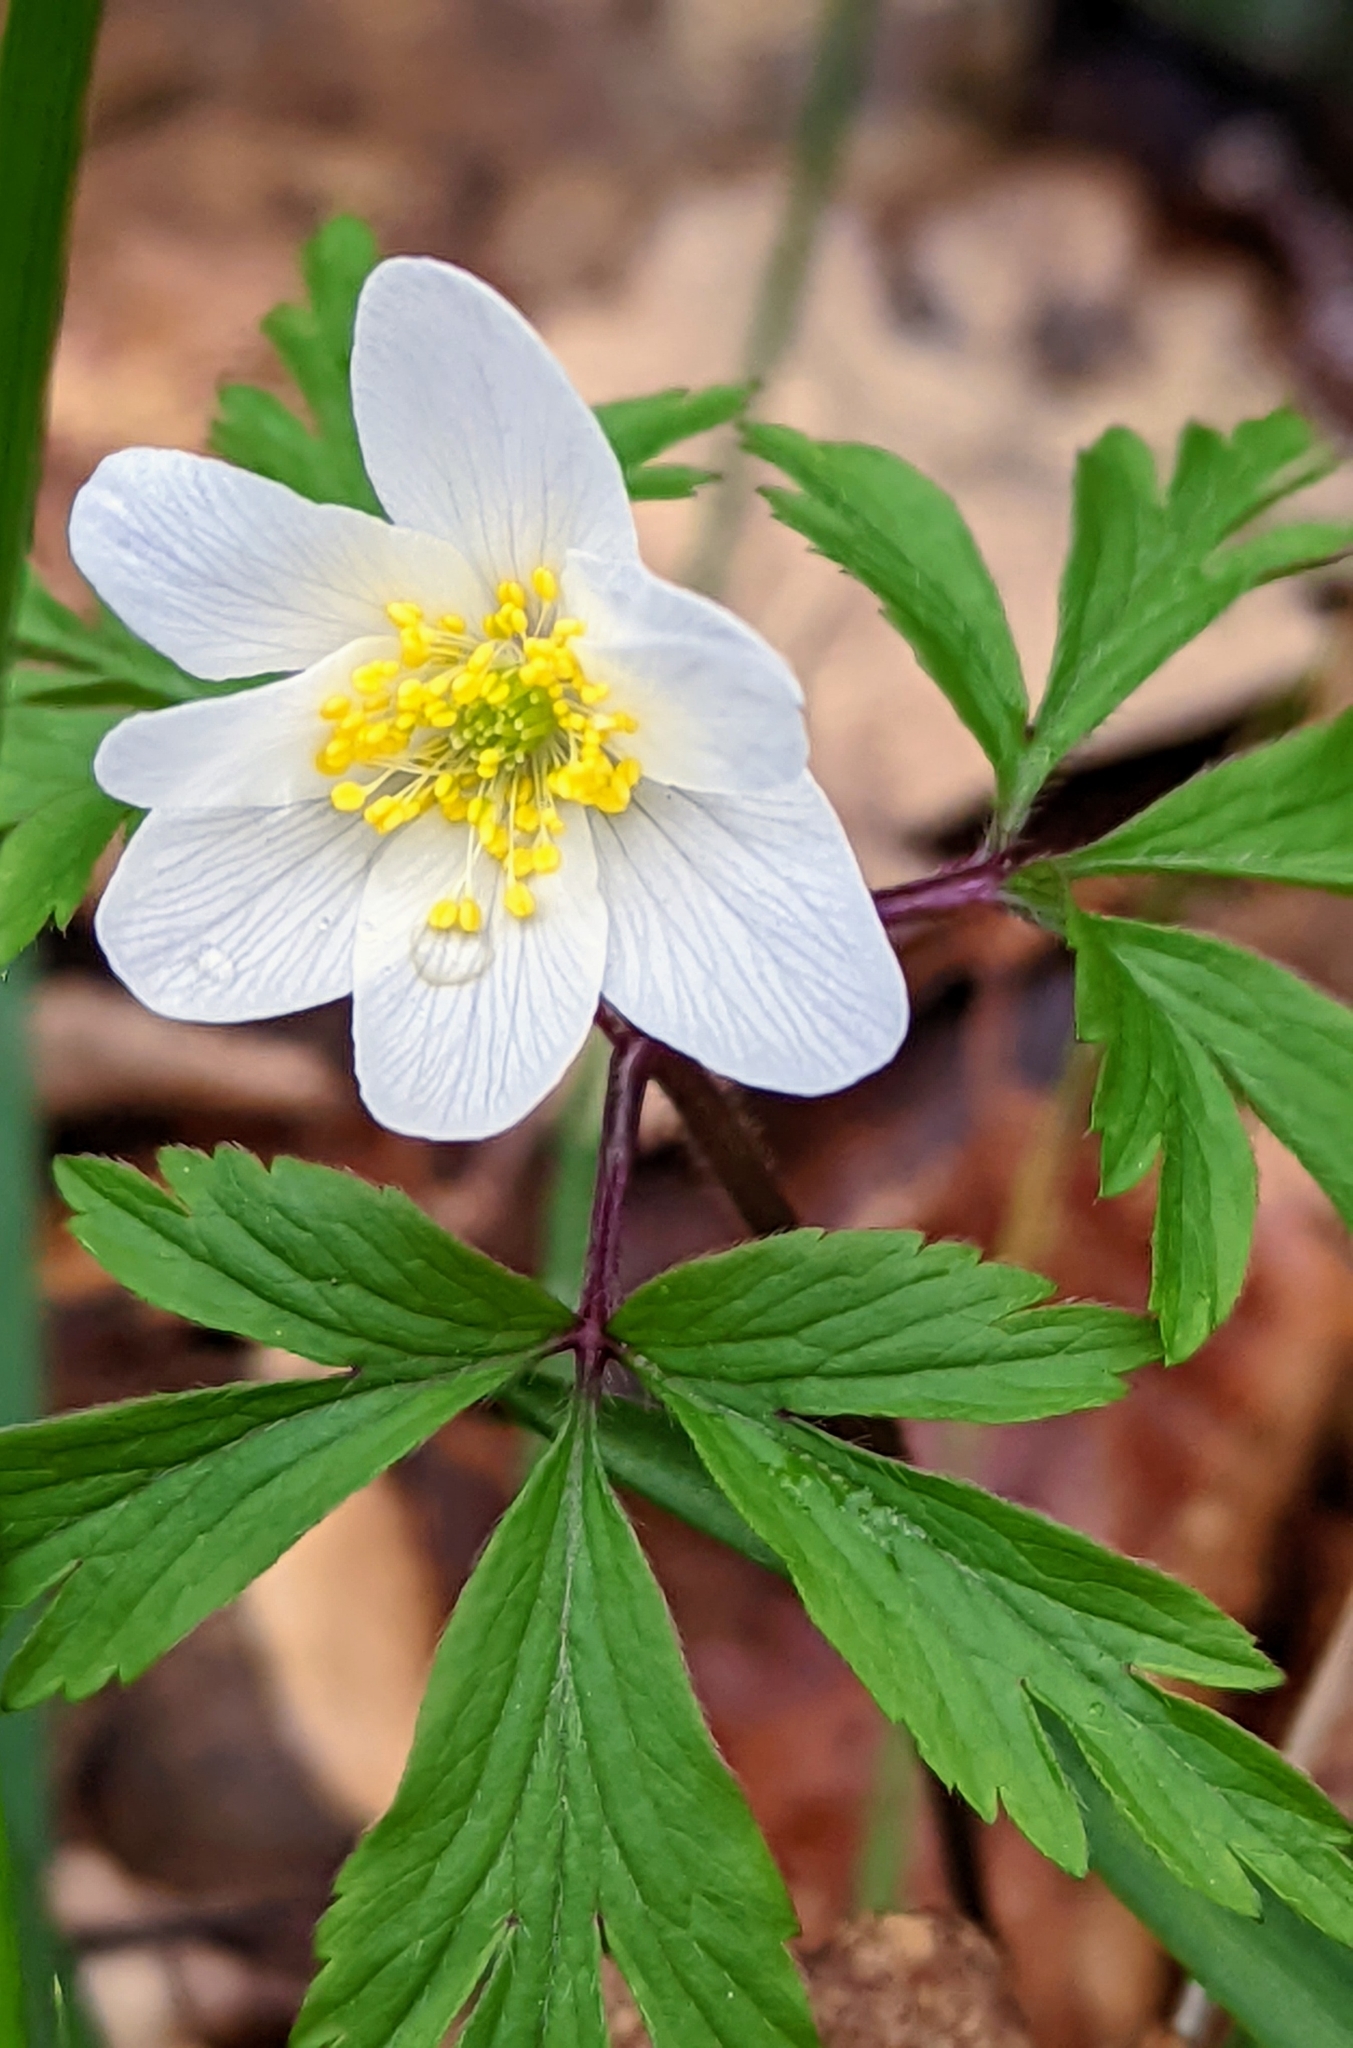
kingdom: Plantae
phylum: Tracheophyta
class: Magnoliopsida
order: Ranunculales
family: Ranunculaceae
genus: Anemone
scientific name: Anemone nemorosa
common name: Wood anemone
